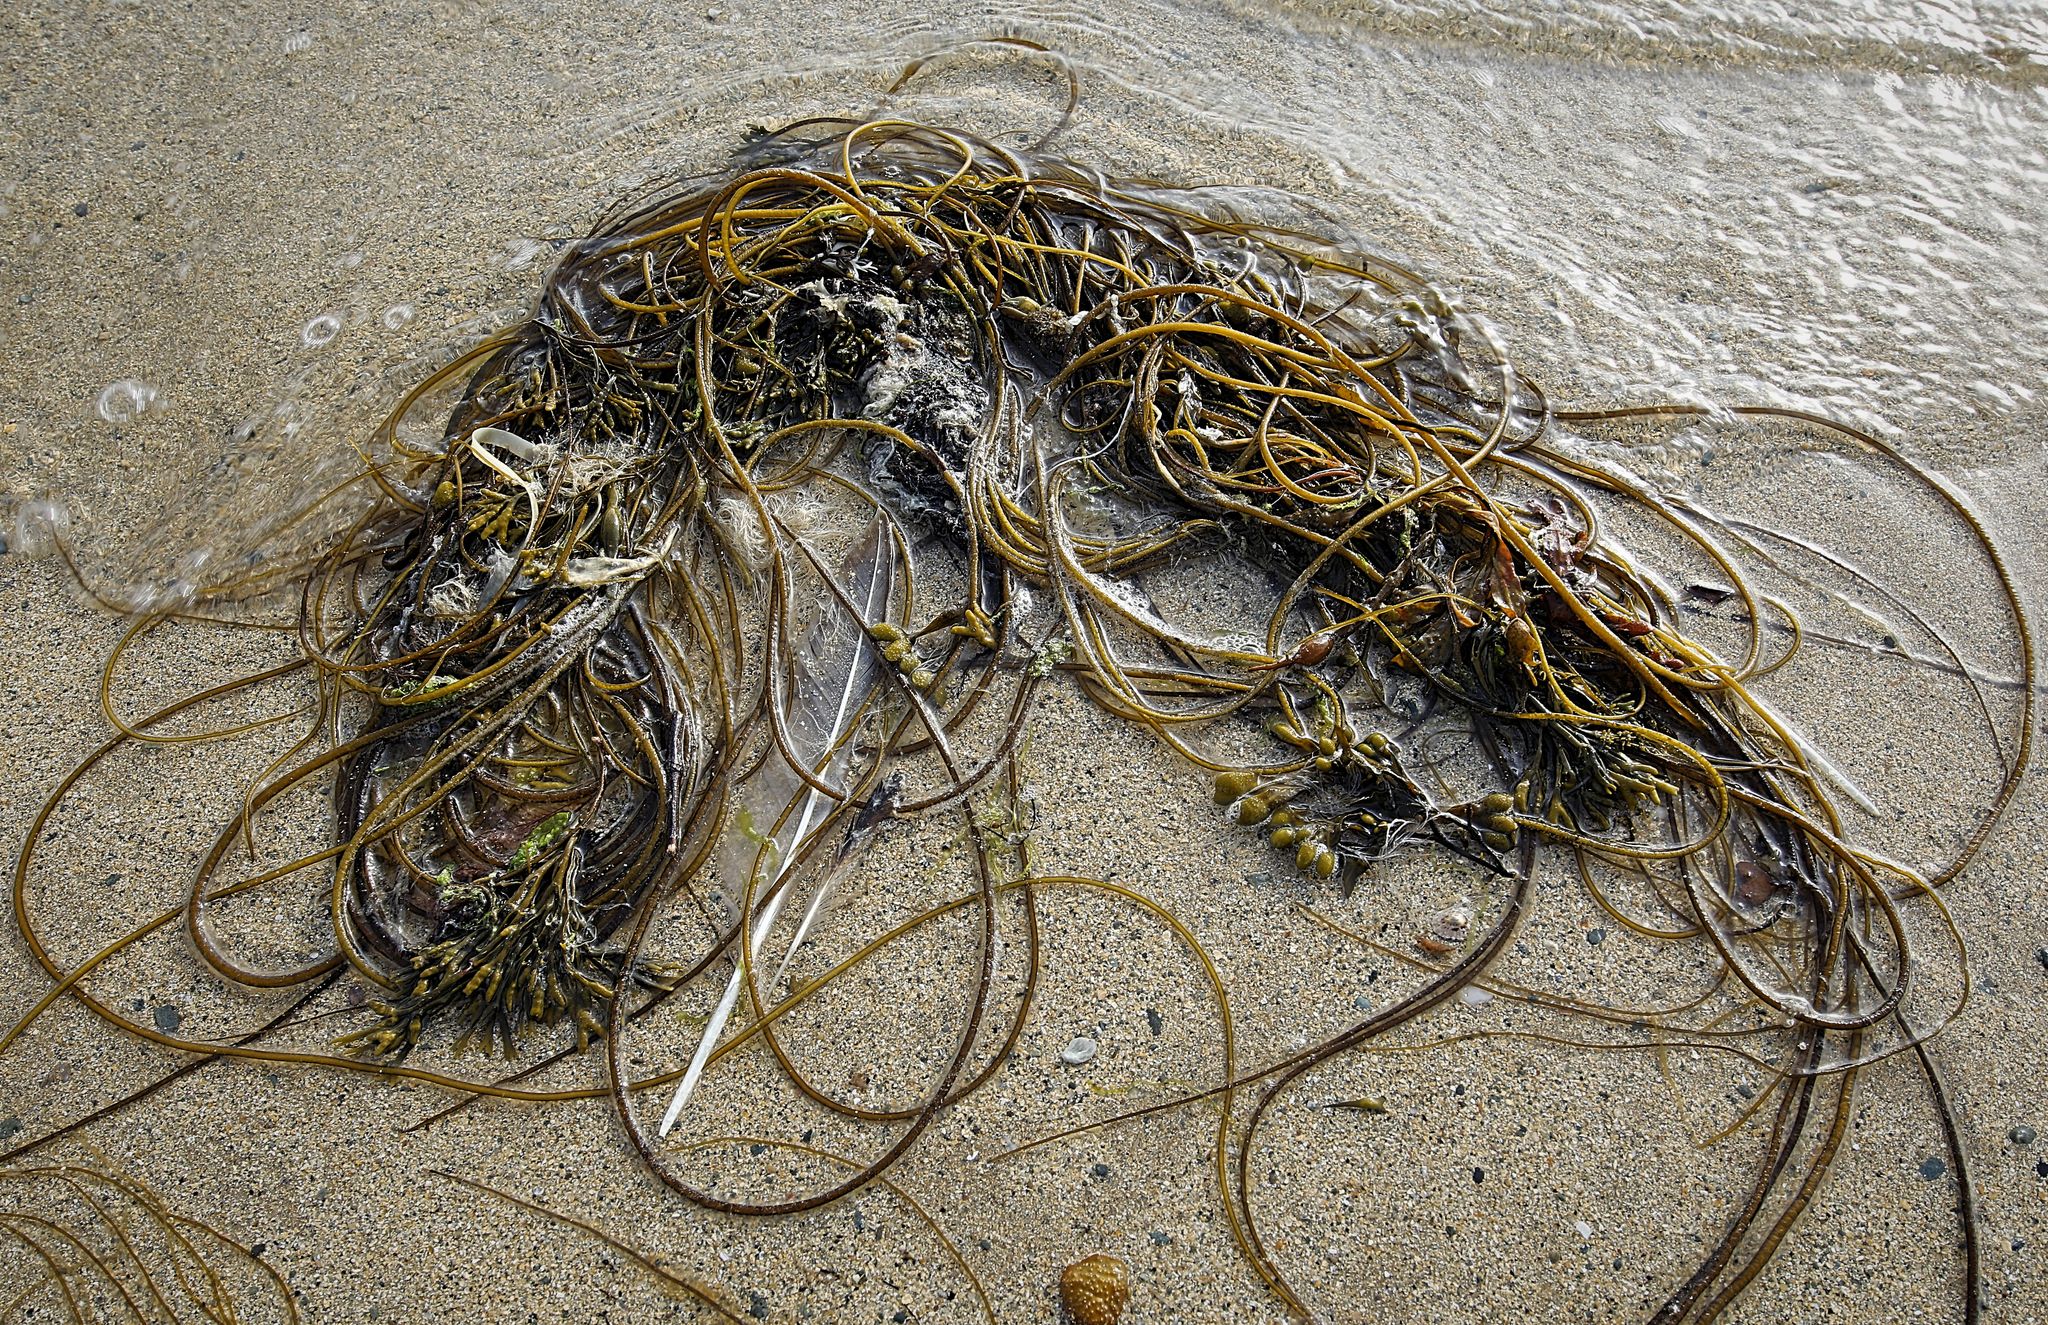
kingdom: Chromista
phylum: Ochrophyta
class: Phaeophyceae
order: Laminariales
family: Chordaceae
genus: Chorda
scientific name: Chorda filum
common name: Mermaid's tresses
